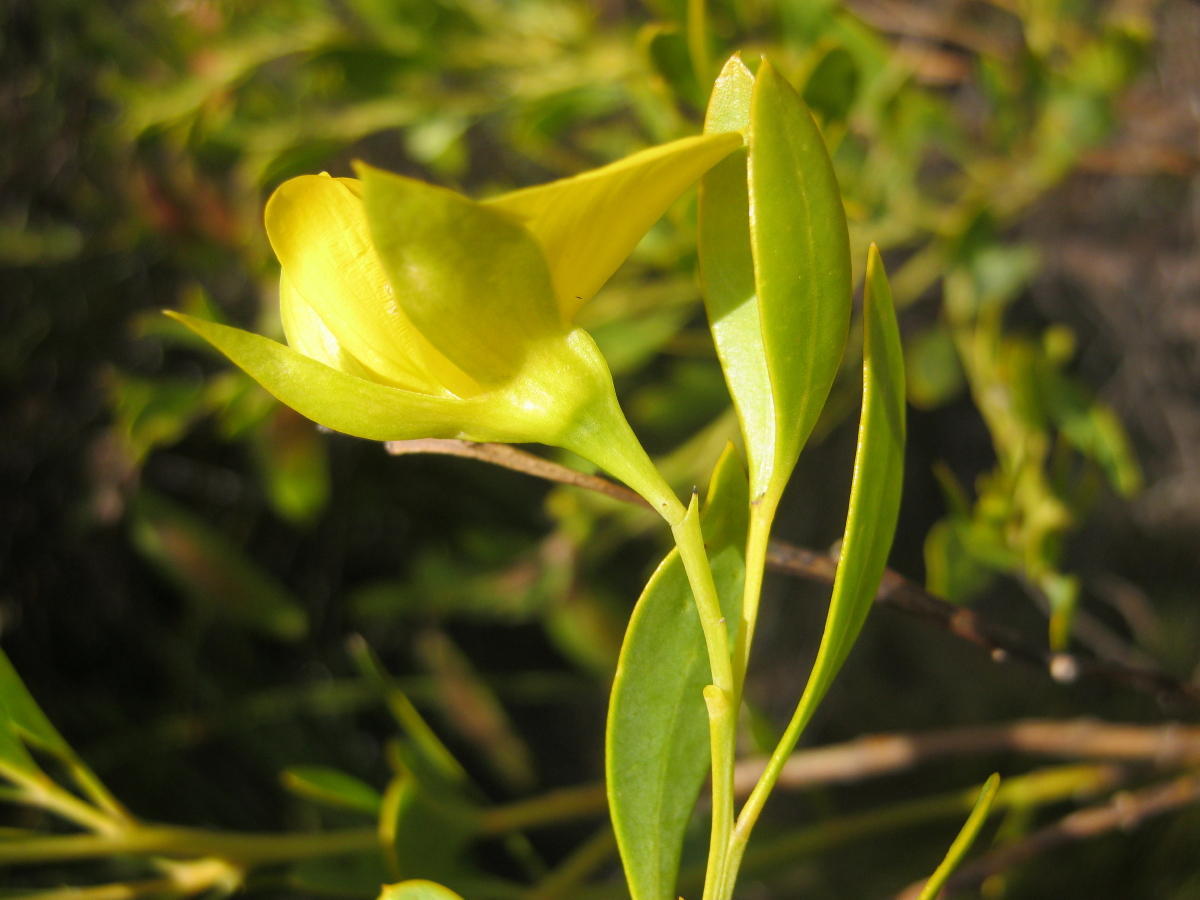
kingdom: Plantae
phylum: Tracheophyta
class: Magnoliopsida
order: Fabales
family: Fabaceae
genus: Rafnia
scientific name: Rafnia vlokii
